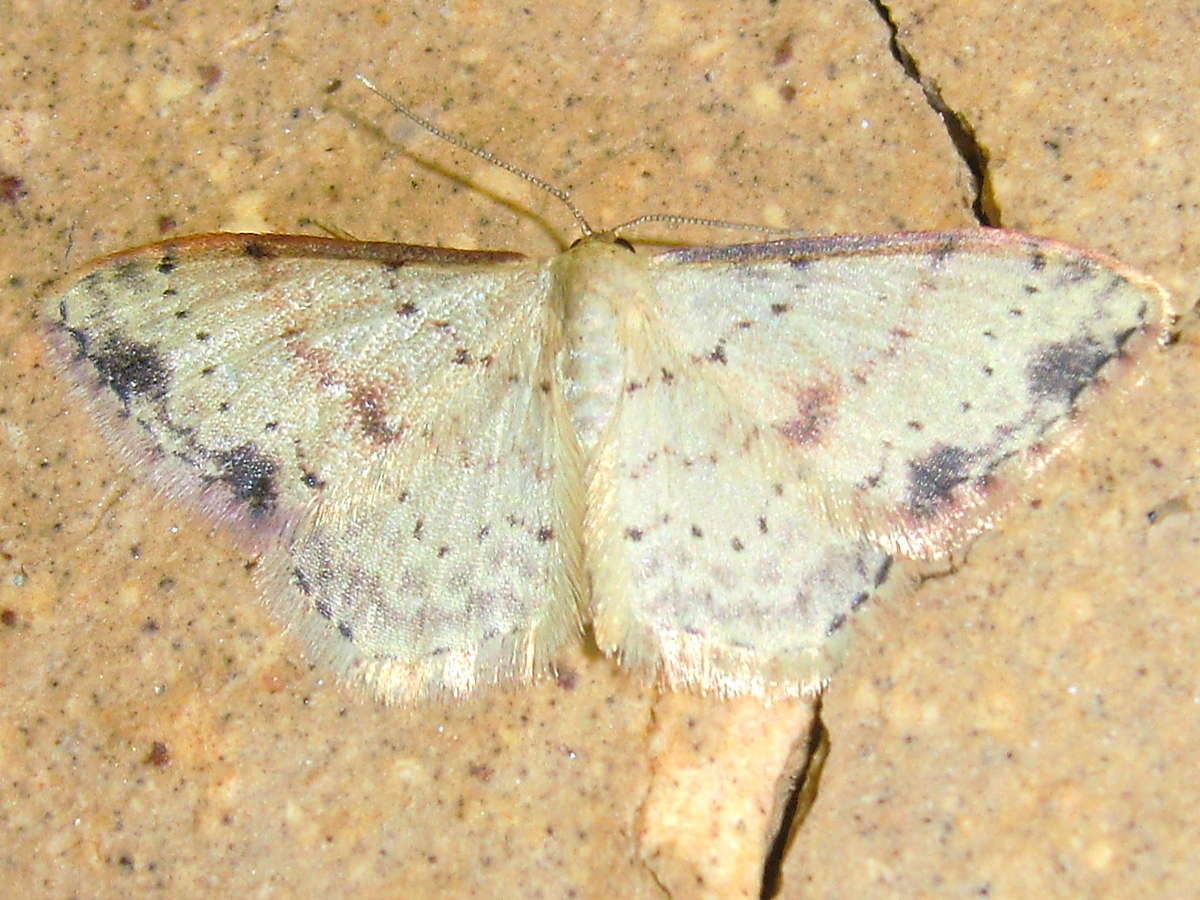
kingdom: Animalia
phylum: Arthropoda
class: Insecta
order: Lepidoptera
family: Geometridae
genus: Idaea
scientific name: Idaea halmaea
